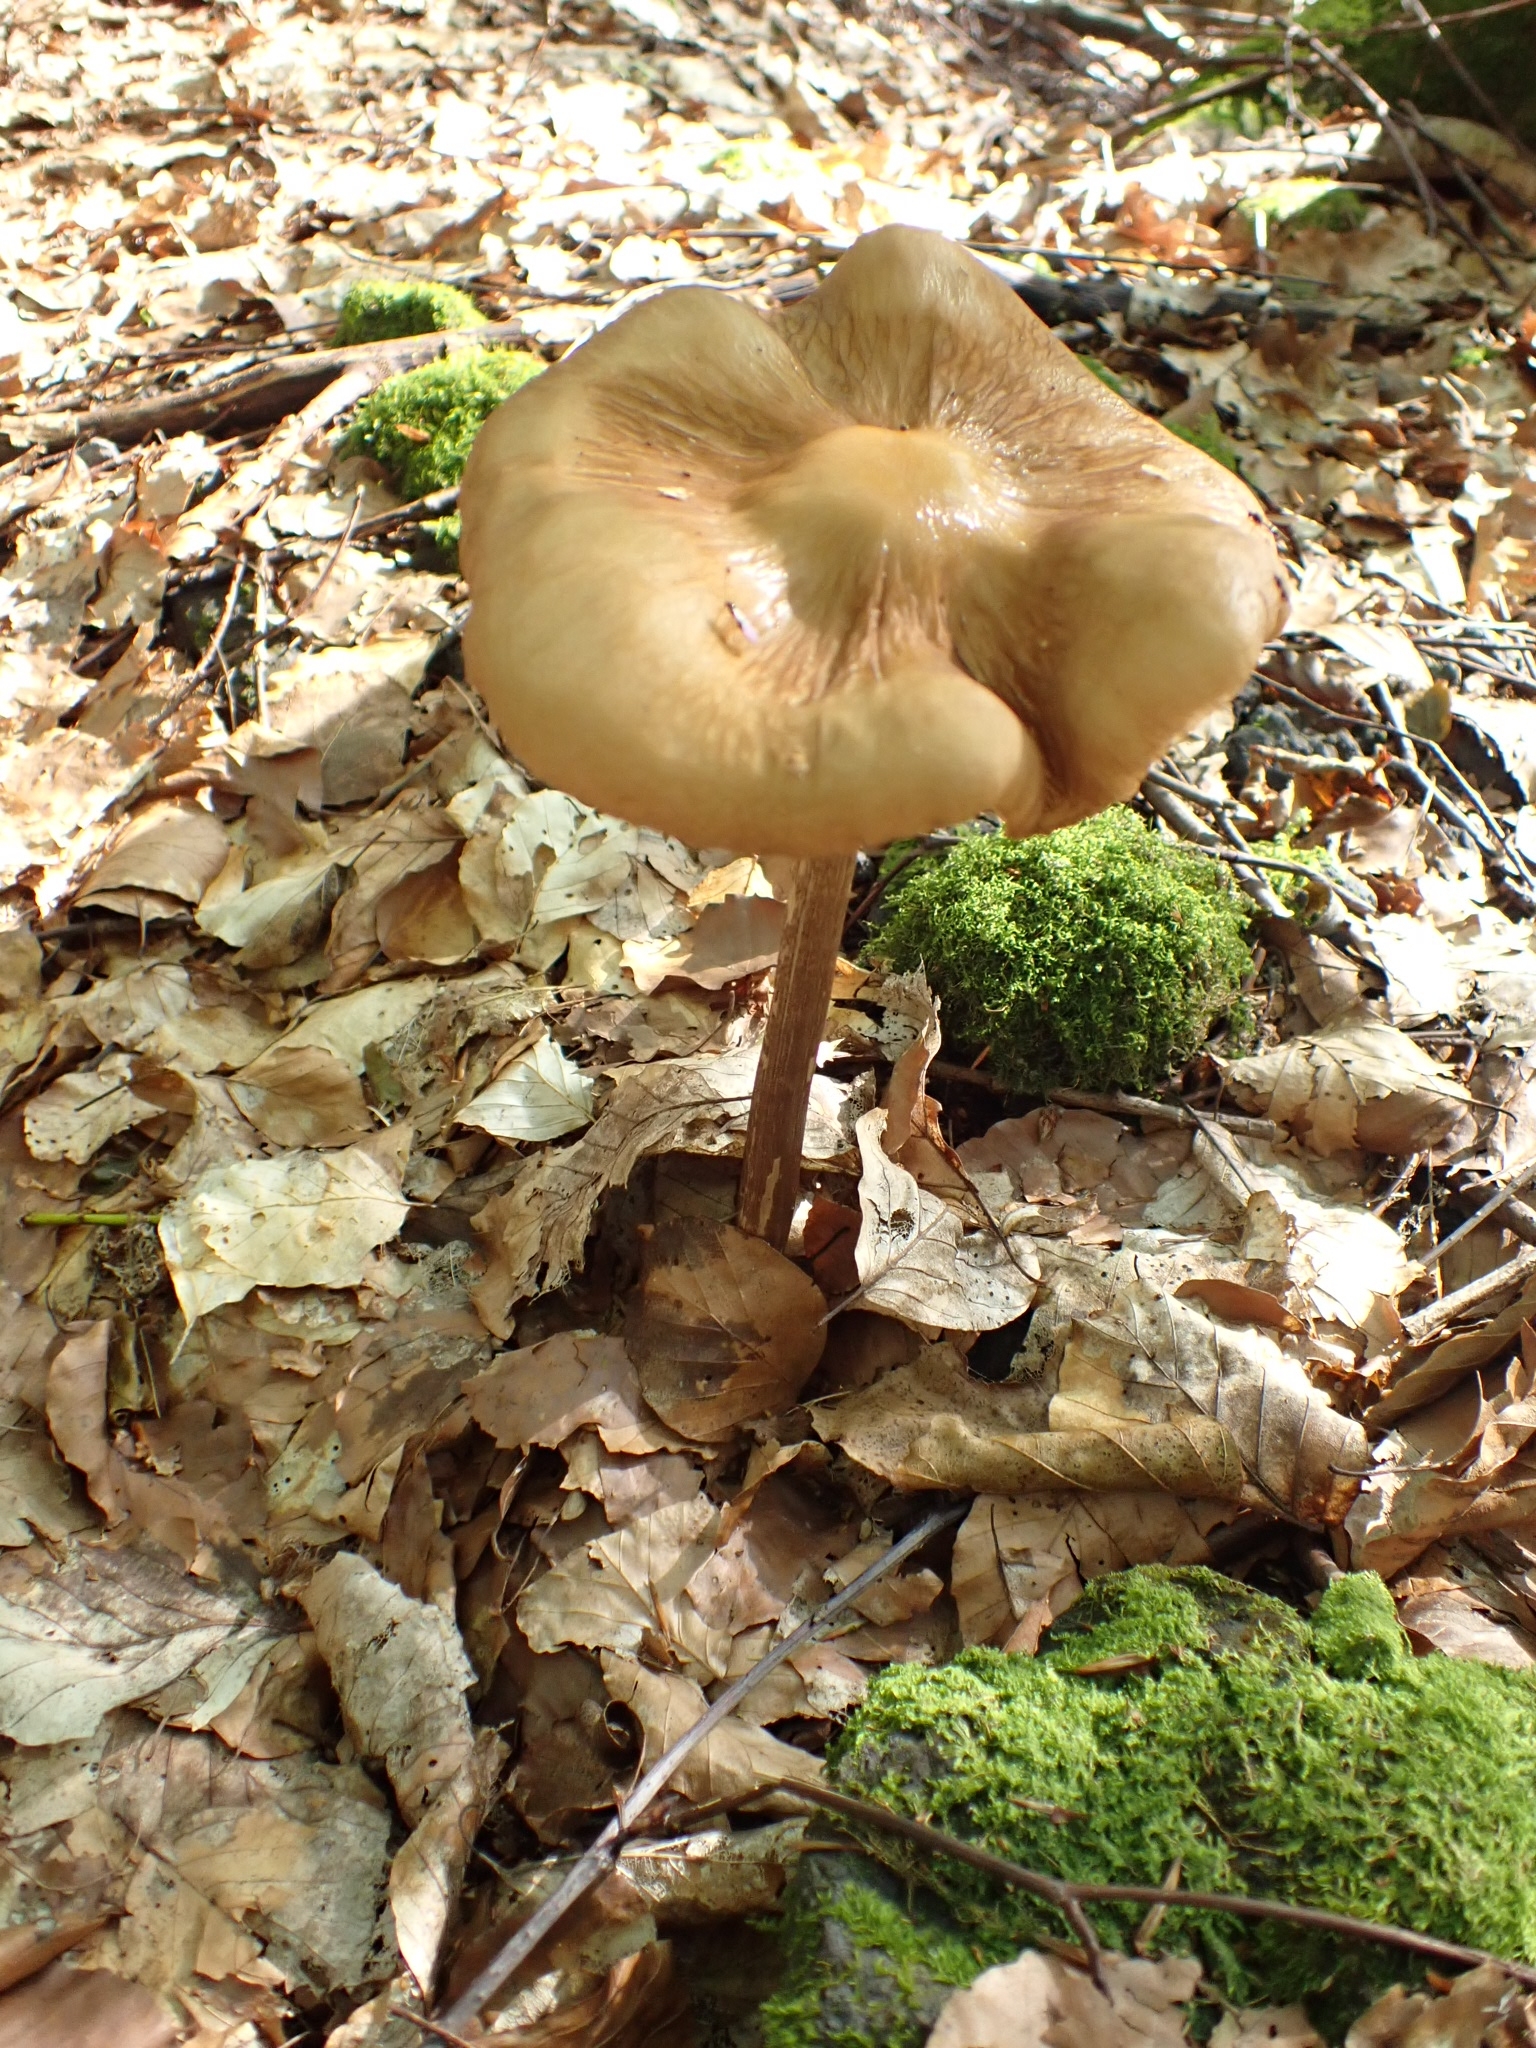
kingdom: Fungi
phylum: Basidiomycota
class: Agaricomycetes
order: Agaricales
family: Physalacriaceae
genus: Hymenopellis
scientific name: Hymenopellis radicata
